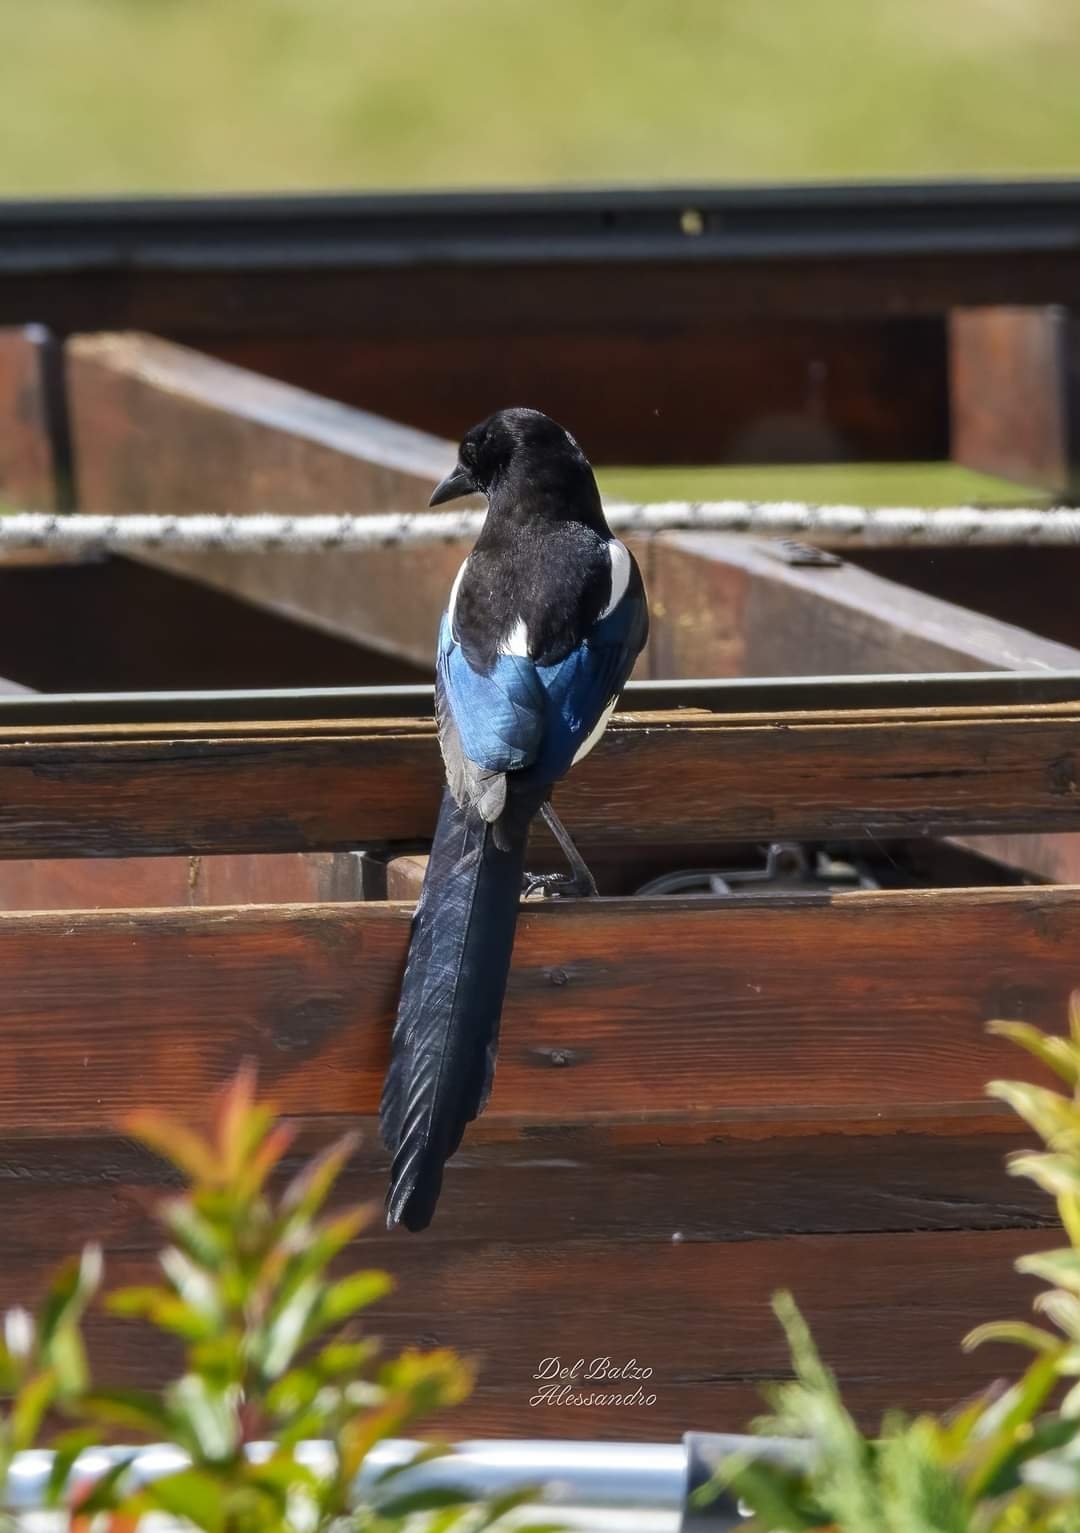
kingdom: Animalia
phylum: Chordata
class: Aves
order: Passeriformes
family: Corvidae
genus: Pica
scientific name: Pica pica
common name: Eurasian magpie
